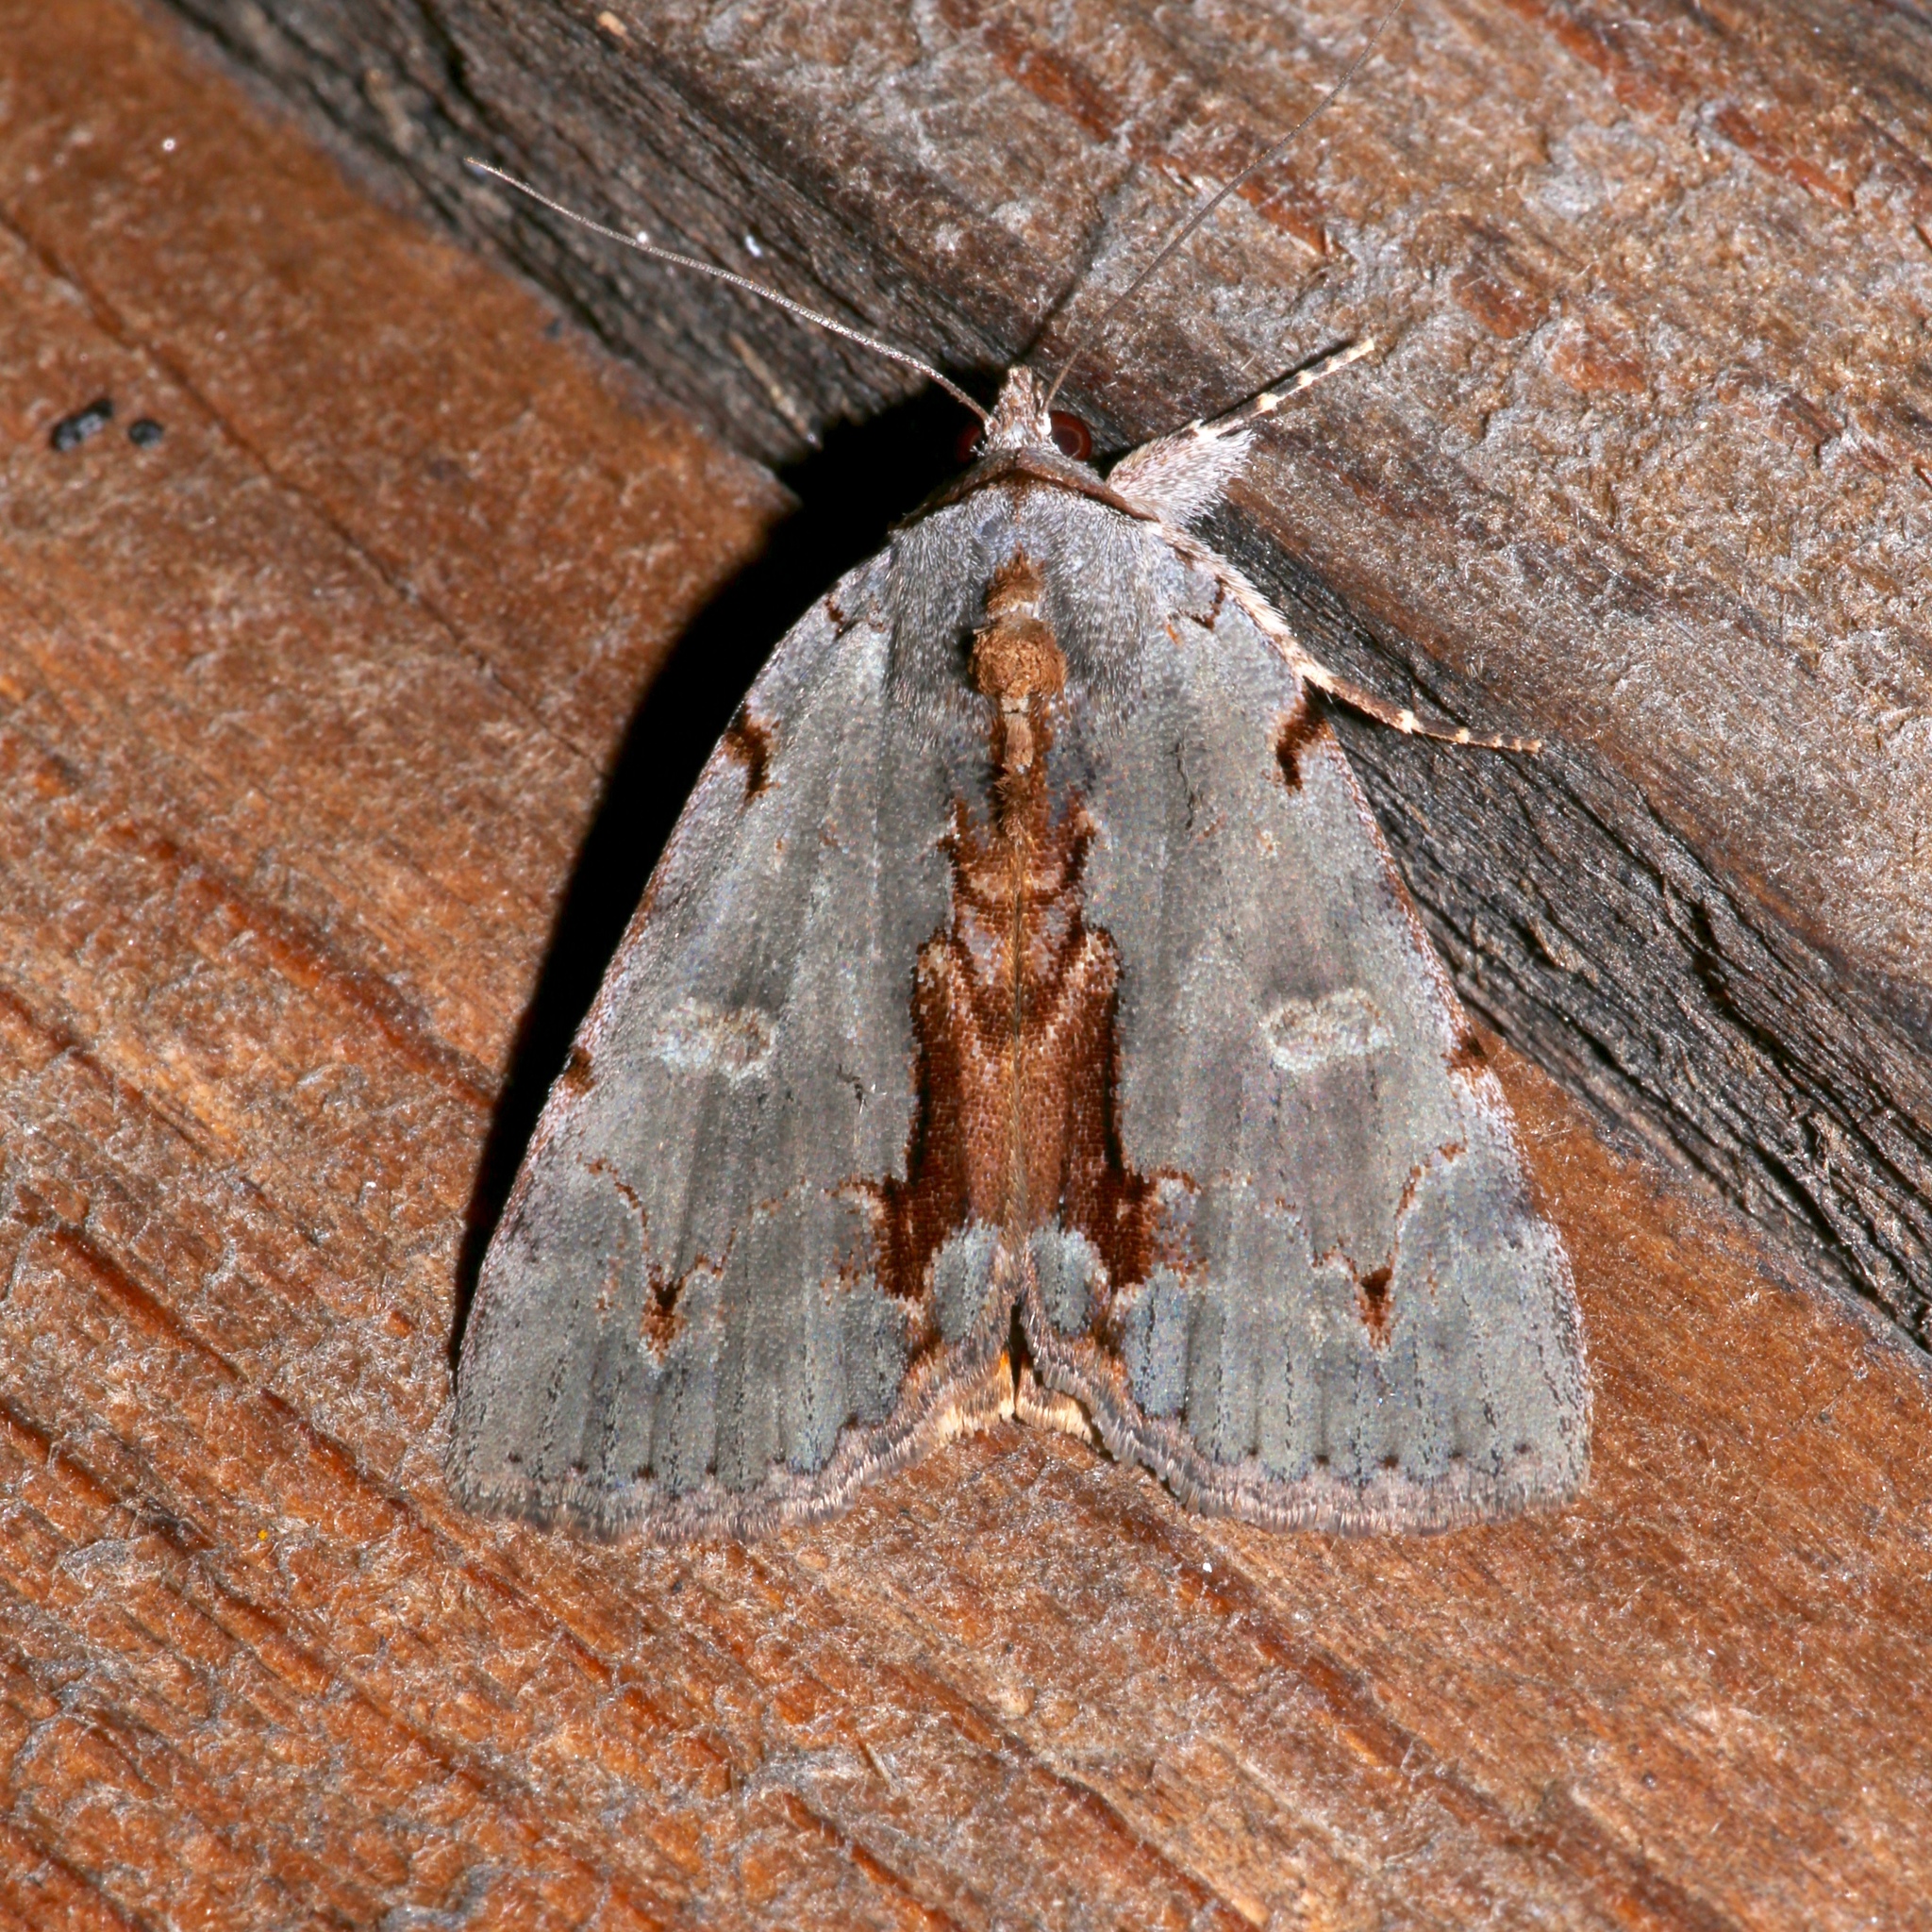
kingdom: Animalia
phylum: Arthropoda
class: Insecta
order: Lepidoptera
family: Erebidae
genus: Catocala
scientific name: Catocala grynea
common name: Woody underwing
